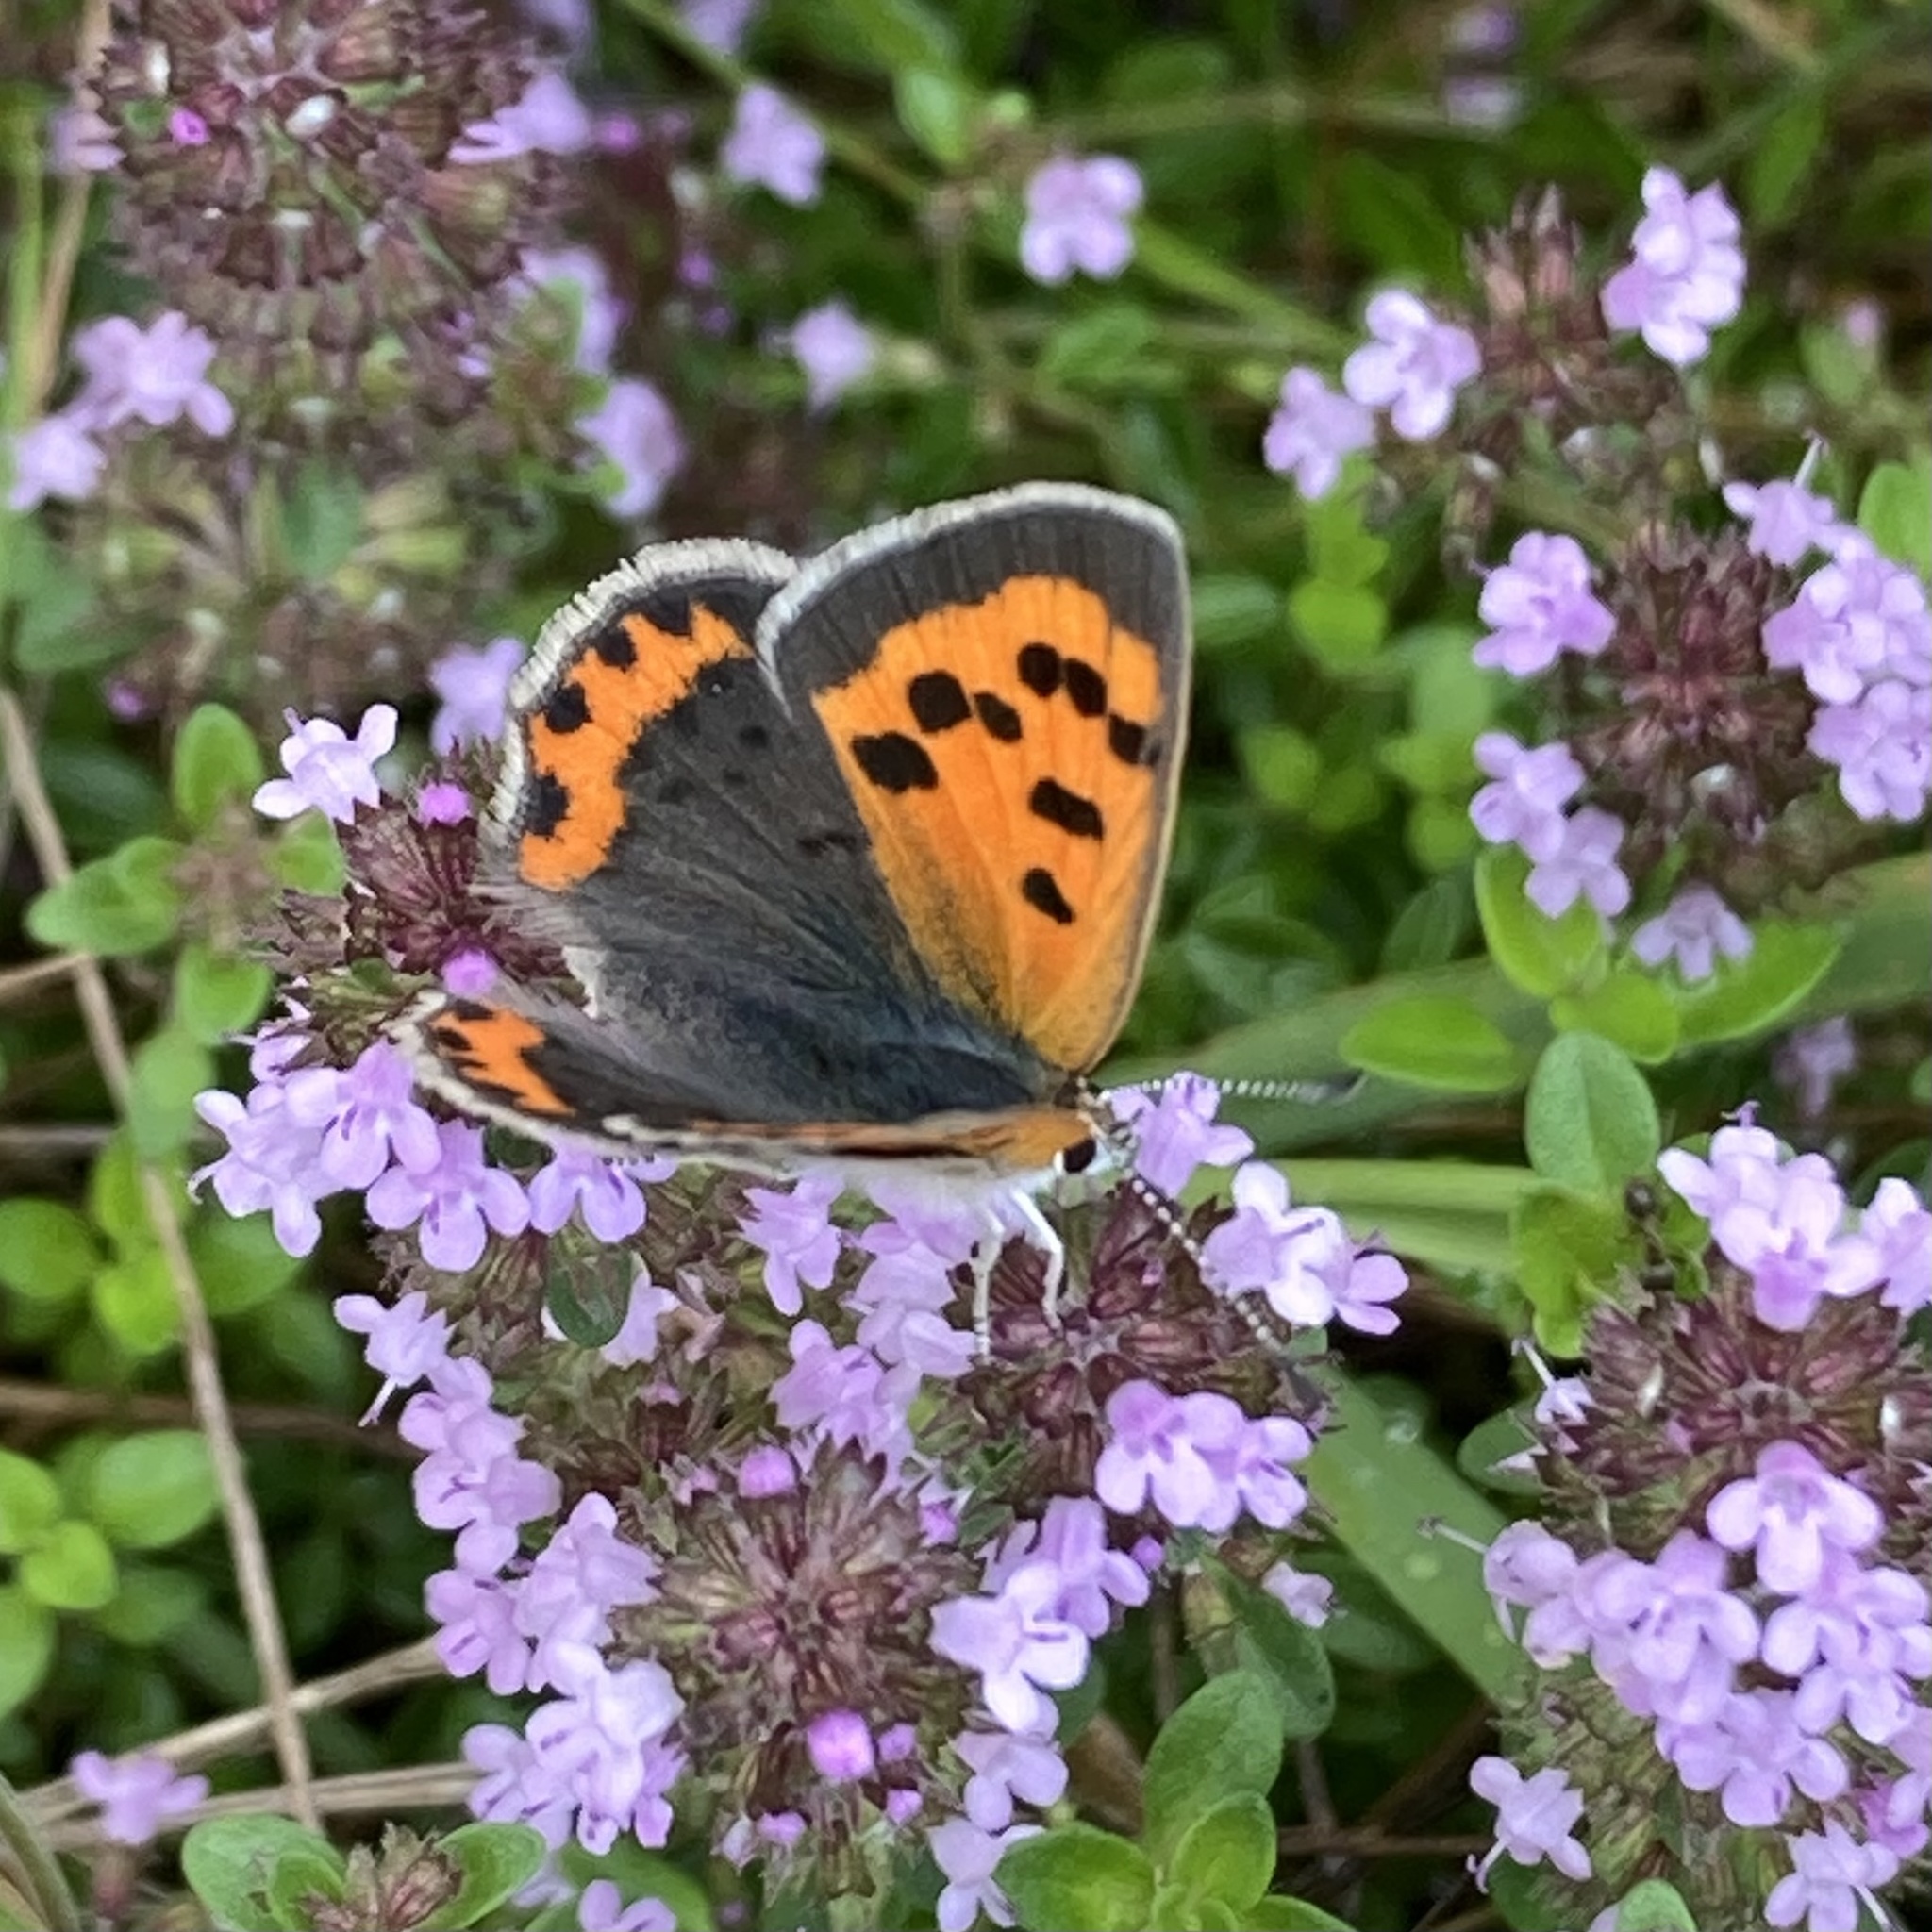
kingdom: Animalia
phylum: Arthropoda
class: Insecta
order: Lepidoptera
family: Lycaenidae
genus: Lycaena
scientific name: Lycaena hypophlaeas
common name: American copper
